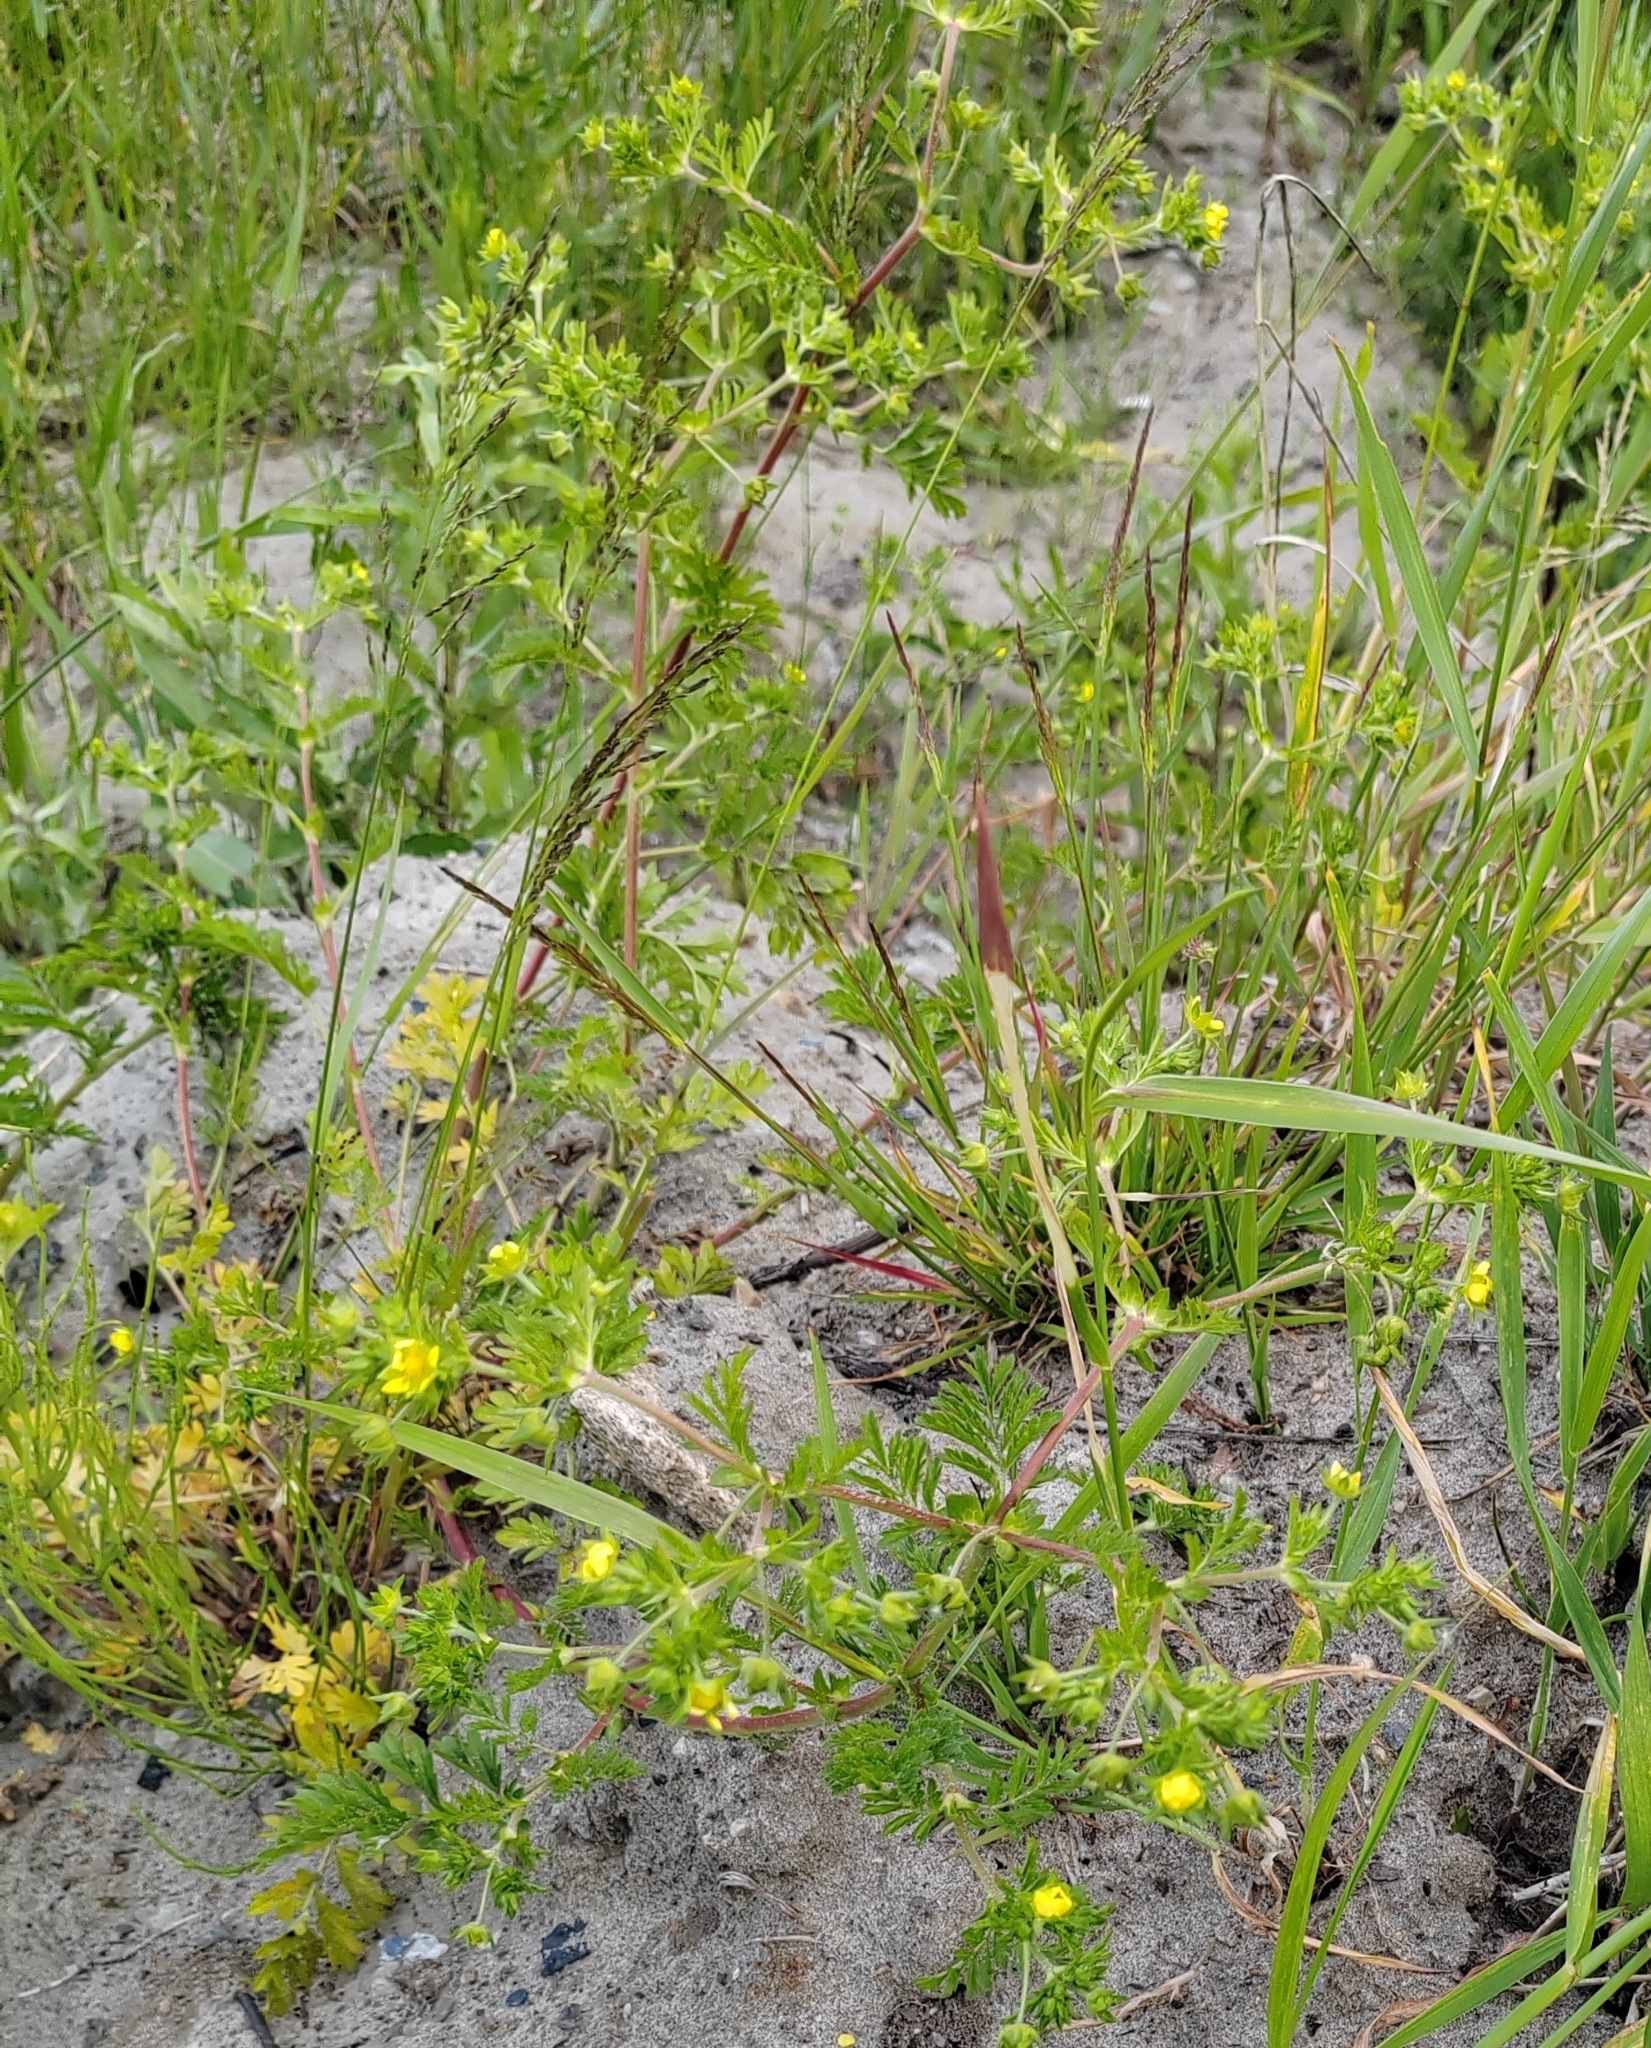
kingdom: Plantae
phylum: Tracheophyta
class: Magnoliopsida
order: Rosales
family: Rosaceae
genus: Potentilla
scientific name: Potentilla supina
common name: Prostrate cinquefoil
